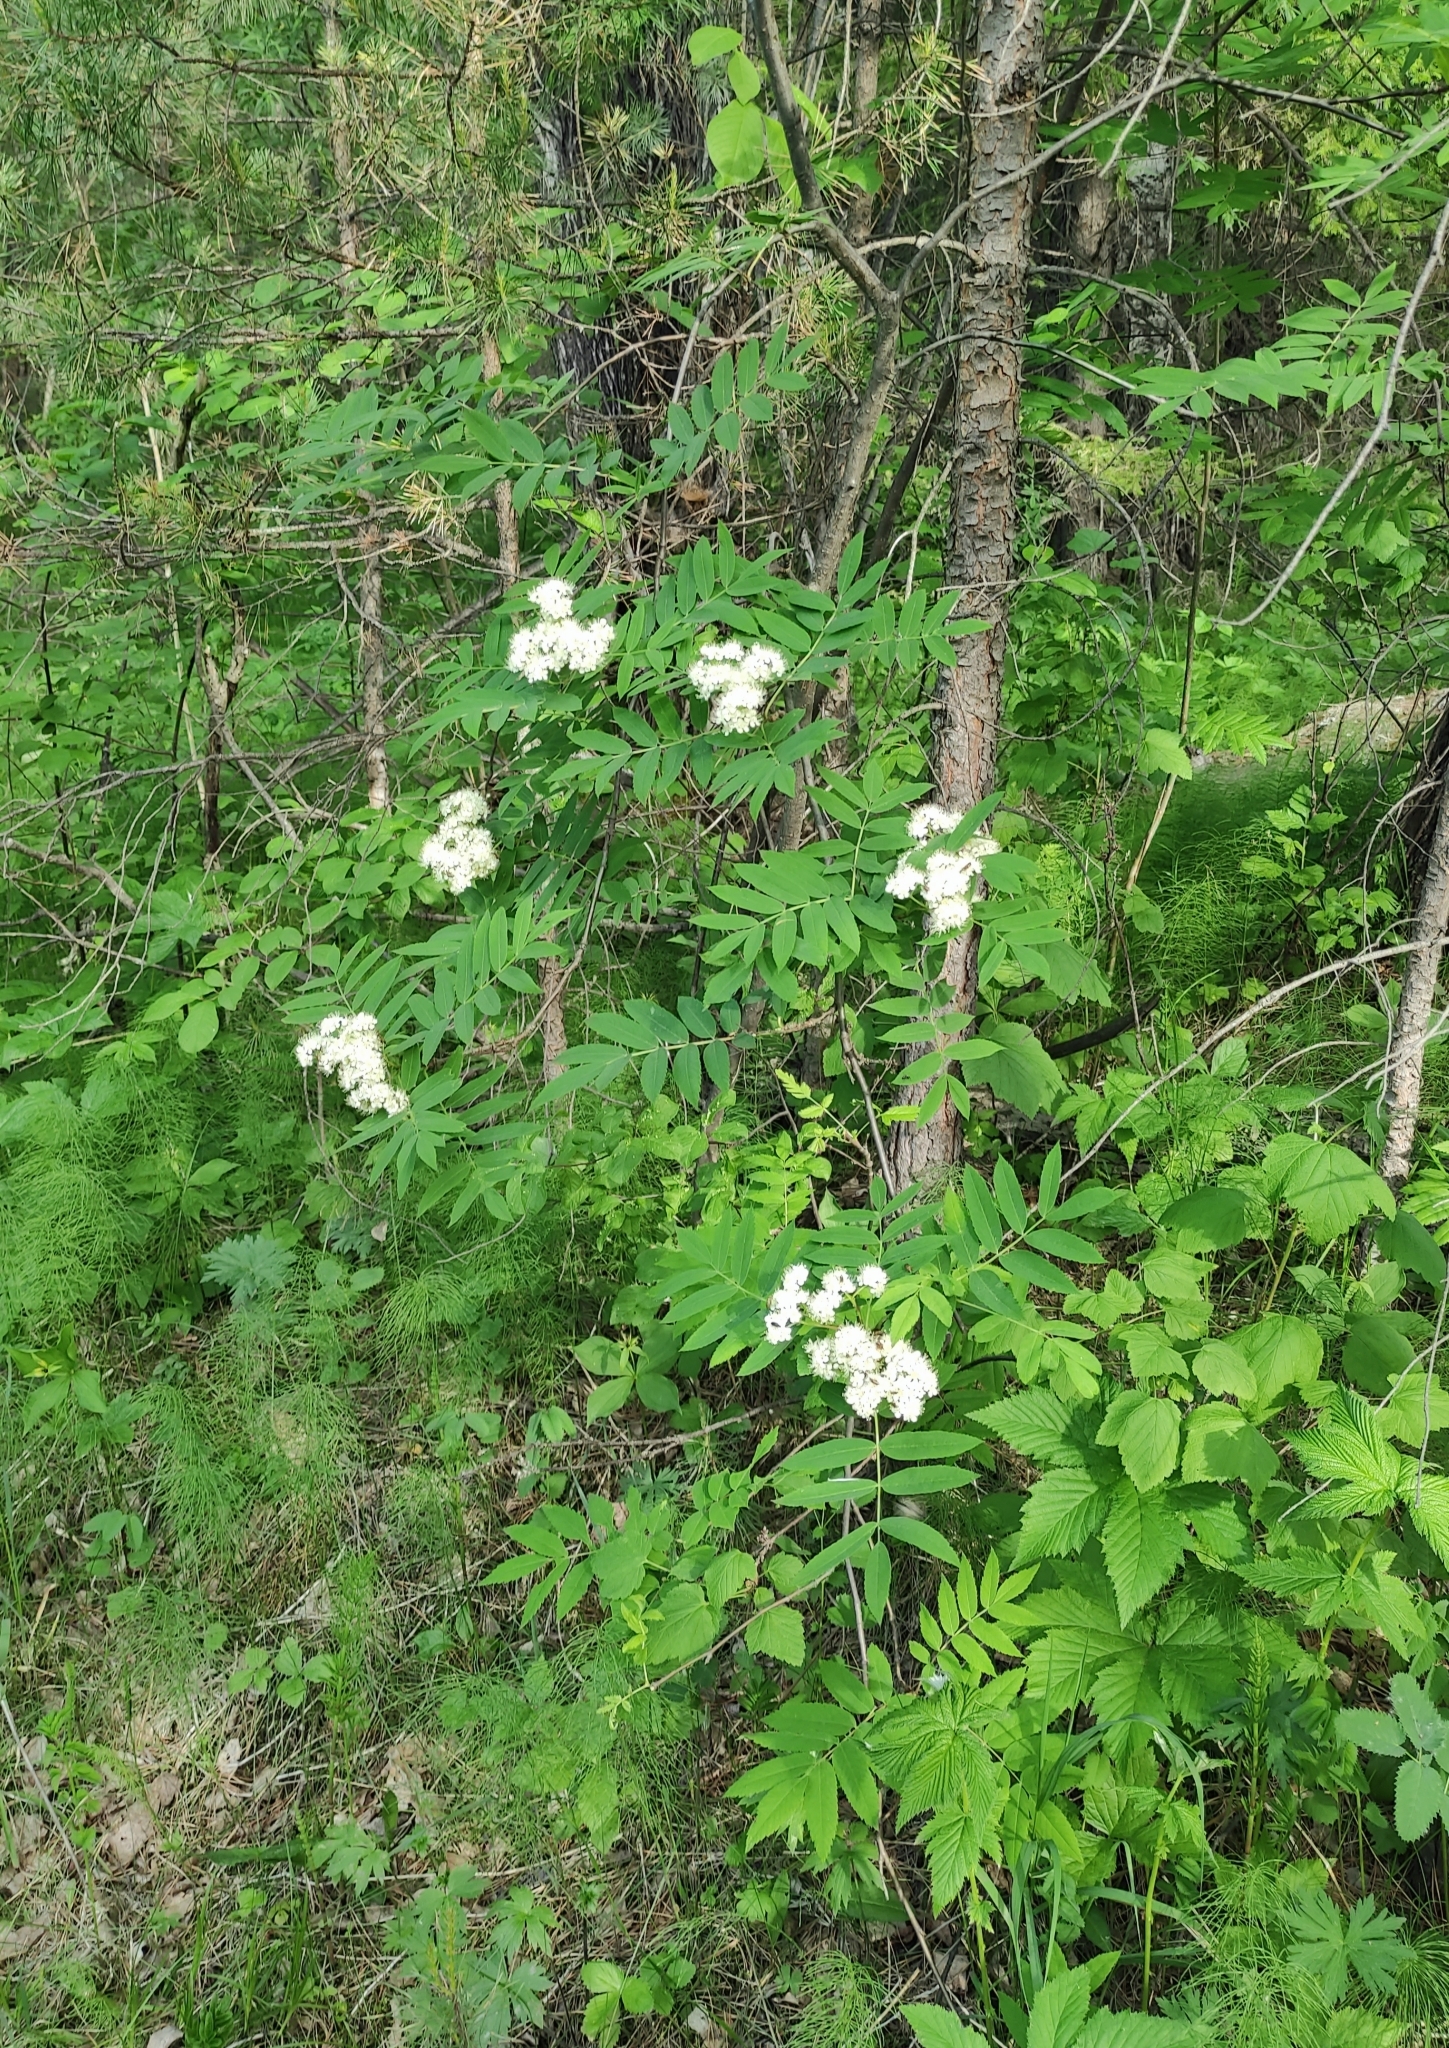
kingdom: Plantae
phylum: Tracheophyta
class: Magnoliopsida
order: Rosales
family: Rosaceae
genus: Sorbus
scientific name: Sorbus aucuparia
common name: Rowan
